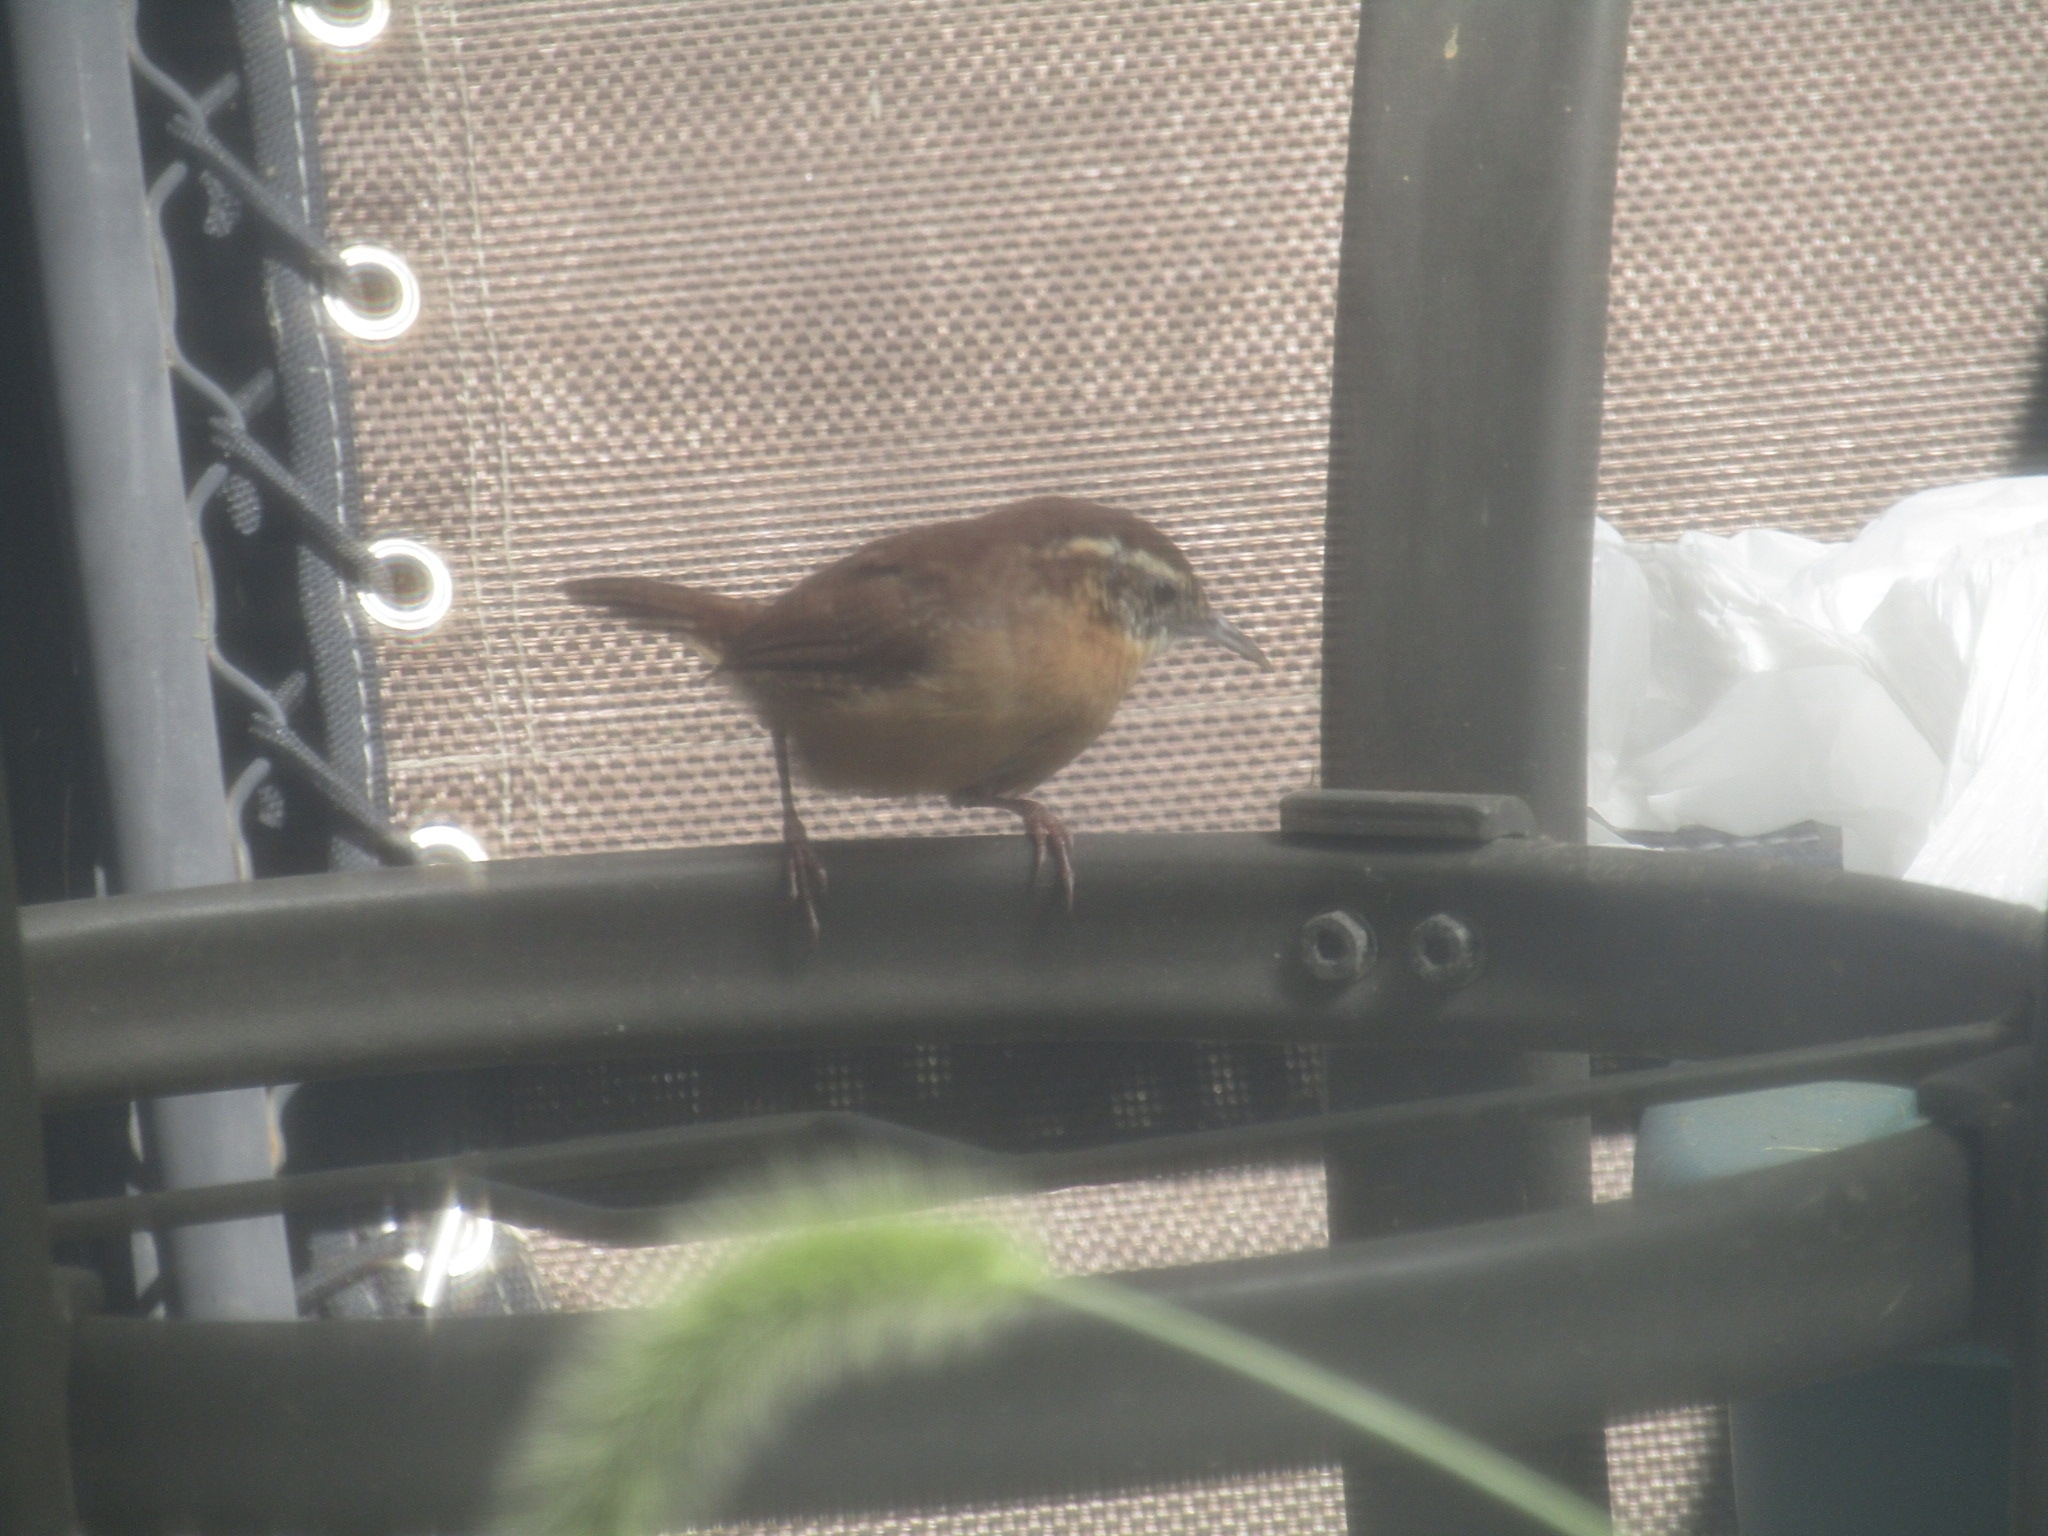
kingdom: Animalia
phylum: Chordata
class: Aves
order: Passeriformes
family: Troglodytidae
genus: Thryothorus
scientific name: Thryothorus ludovicianus
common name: Carolina wren
